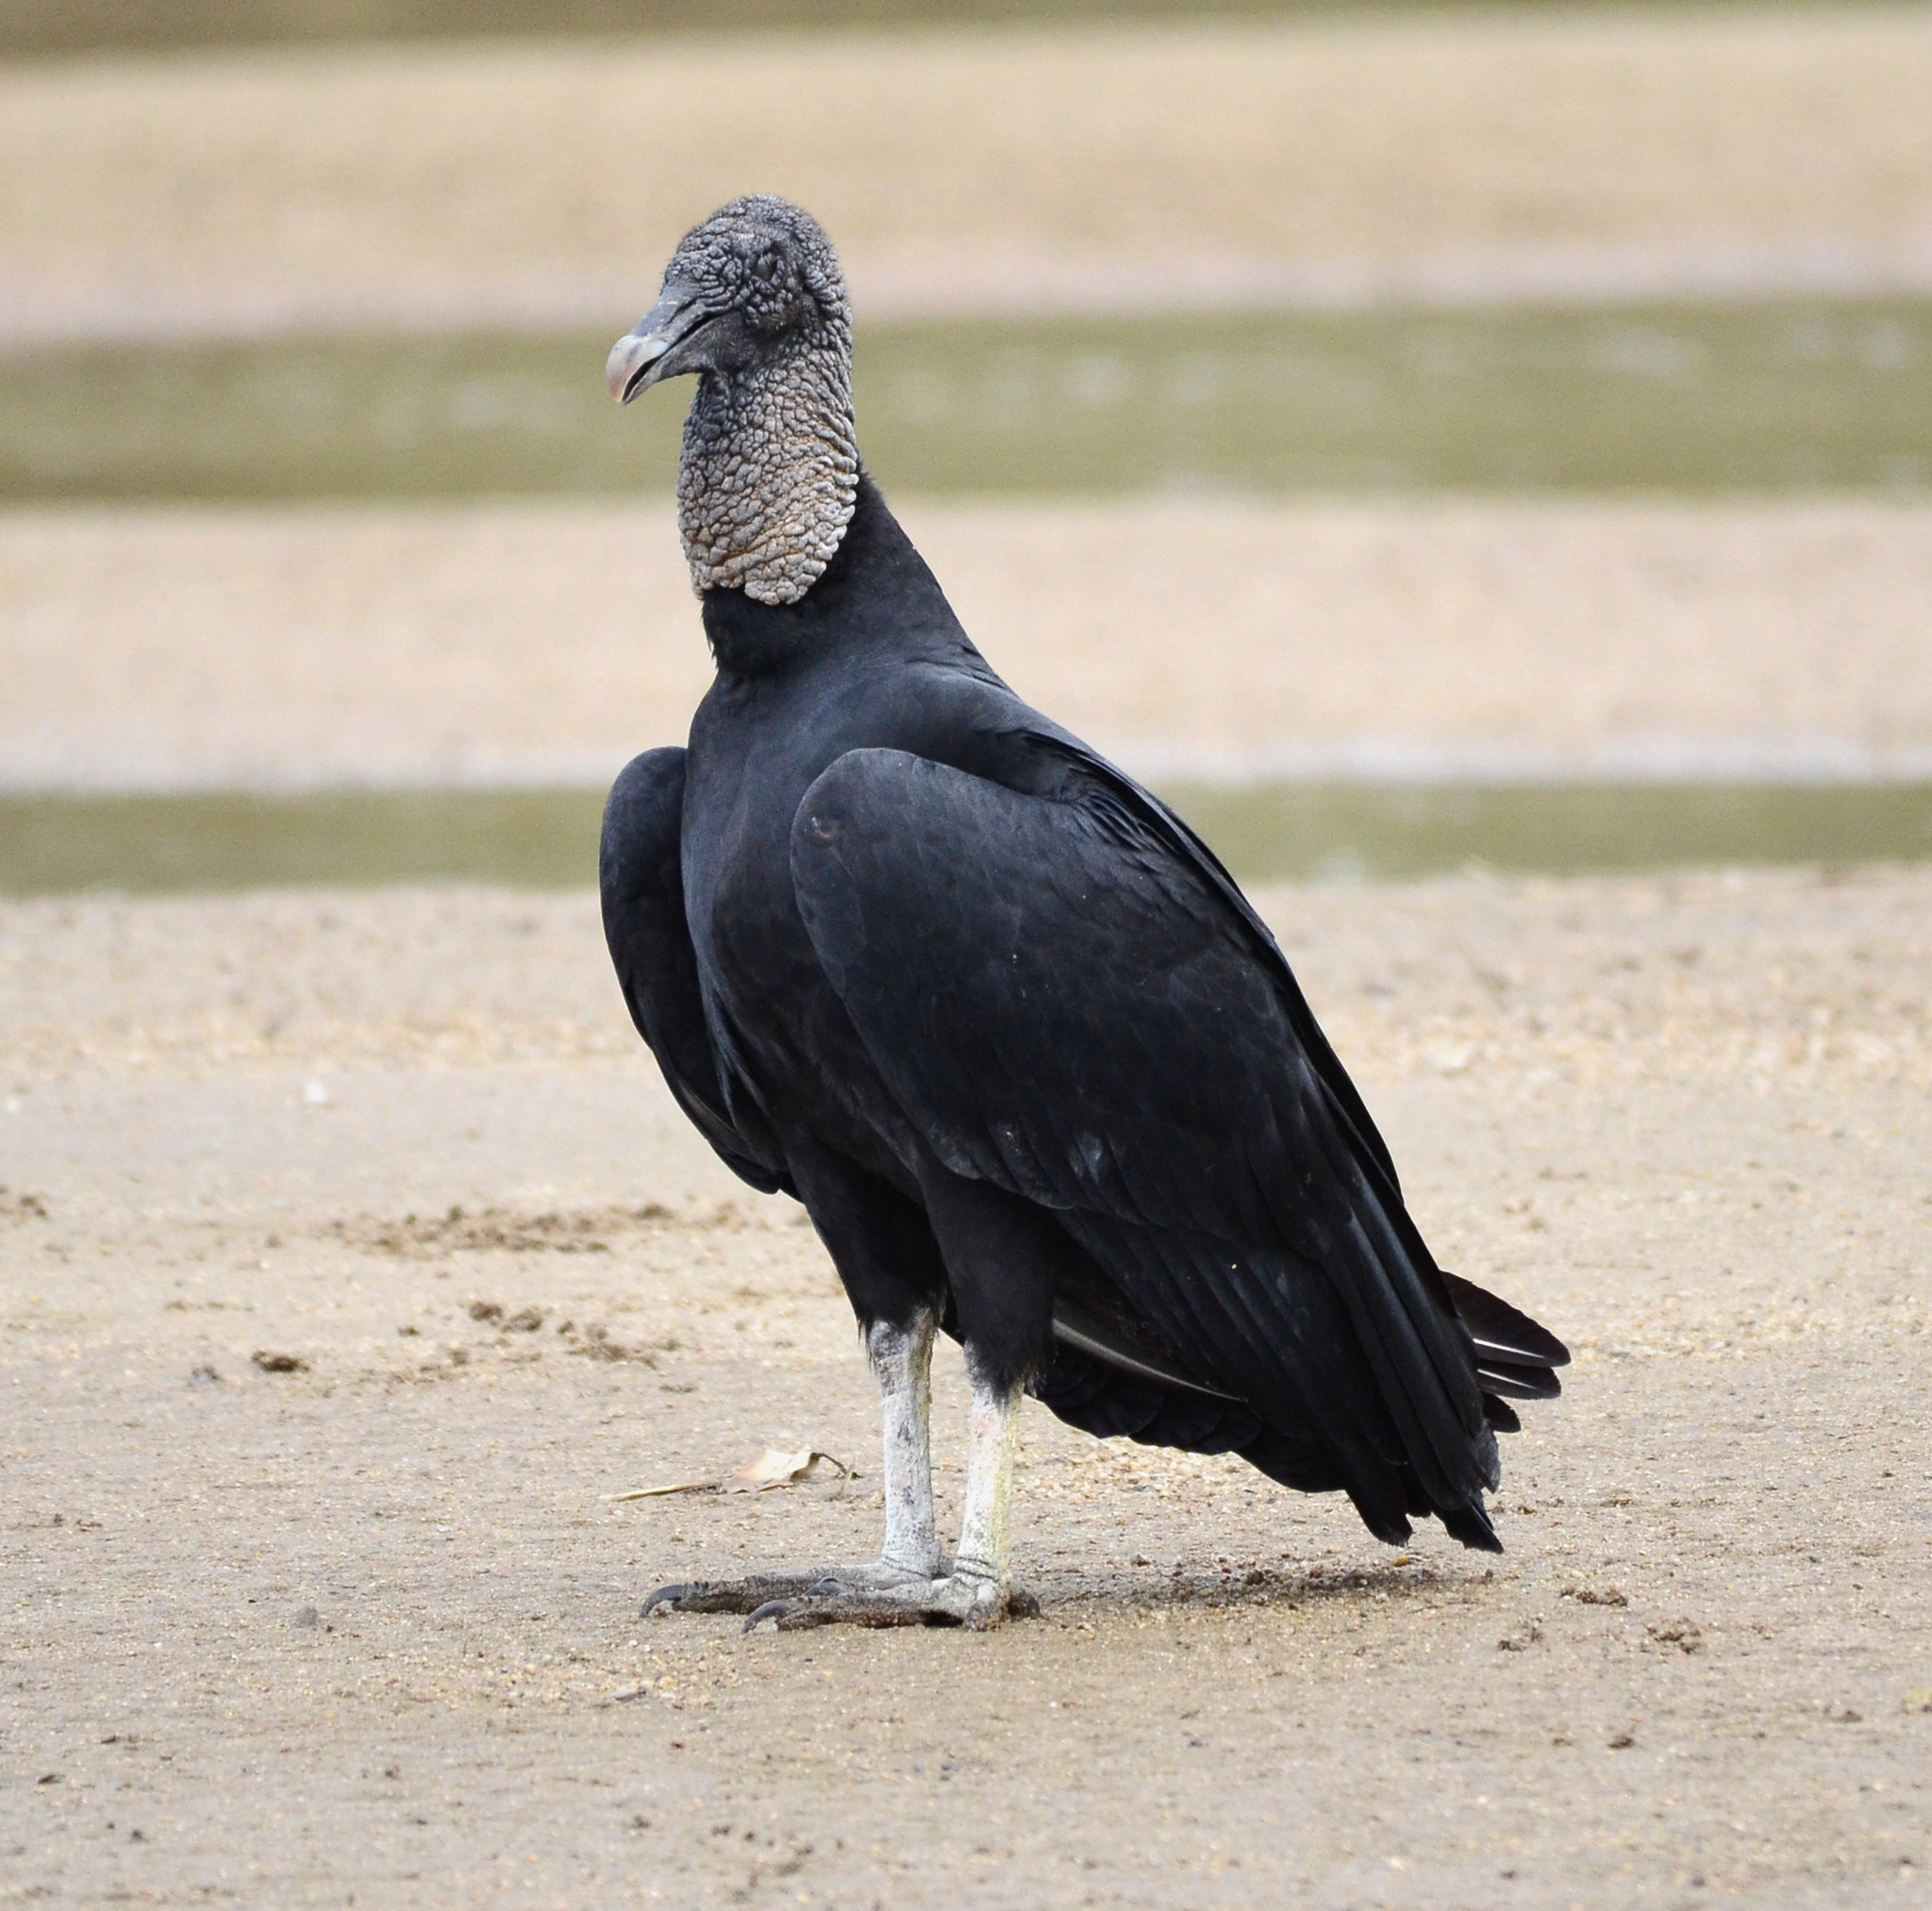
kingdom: Animalia
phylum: Chordata
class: Aves
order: Accipitriformes
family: Cathartidae
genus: Coragyps
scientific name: Coragyps atratus
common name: Black vulture
